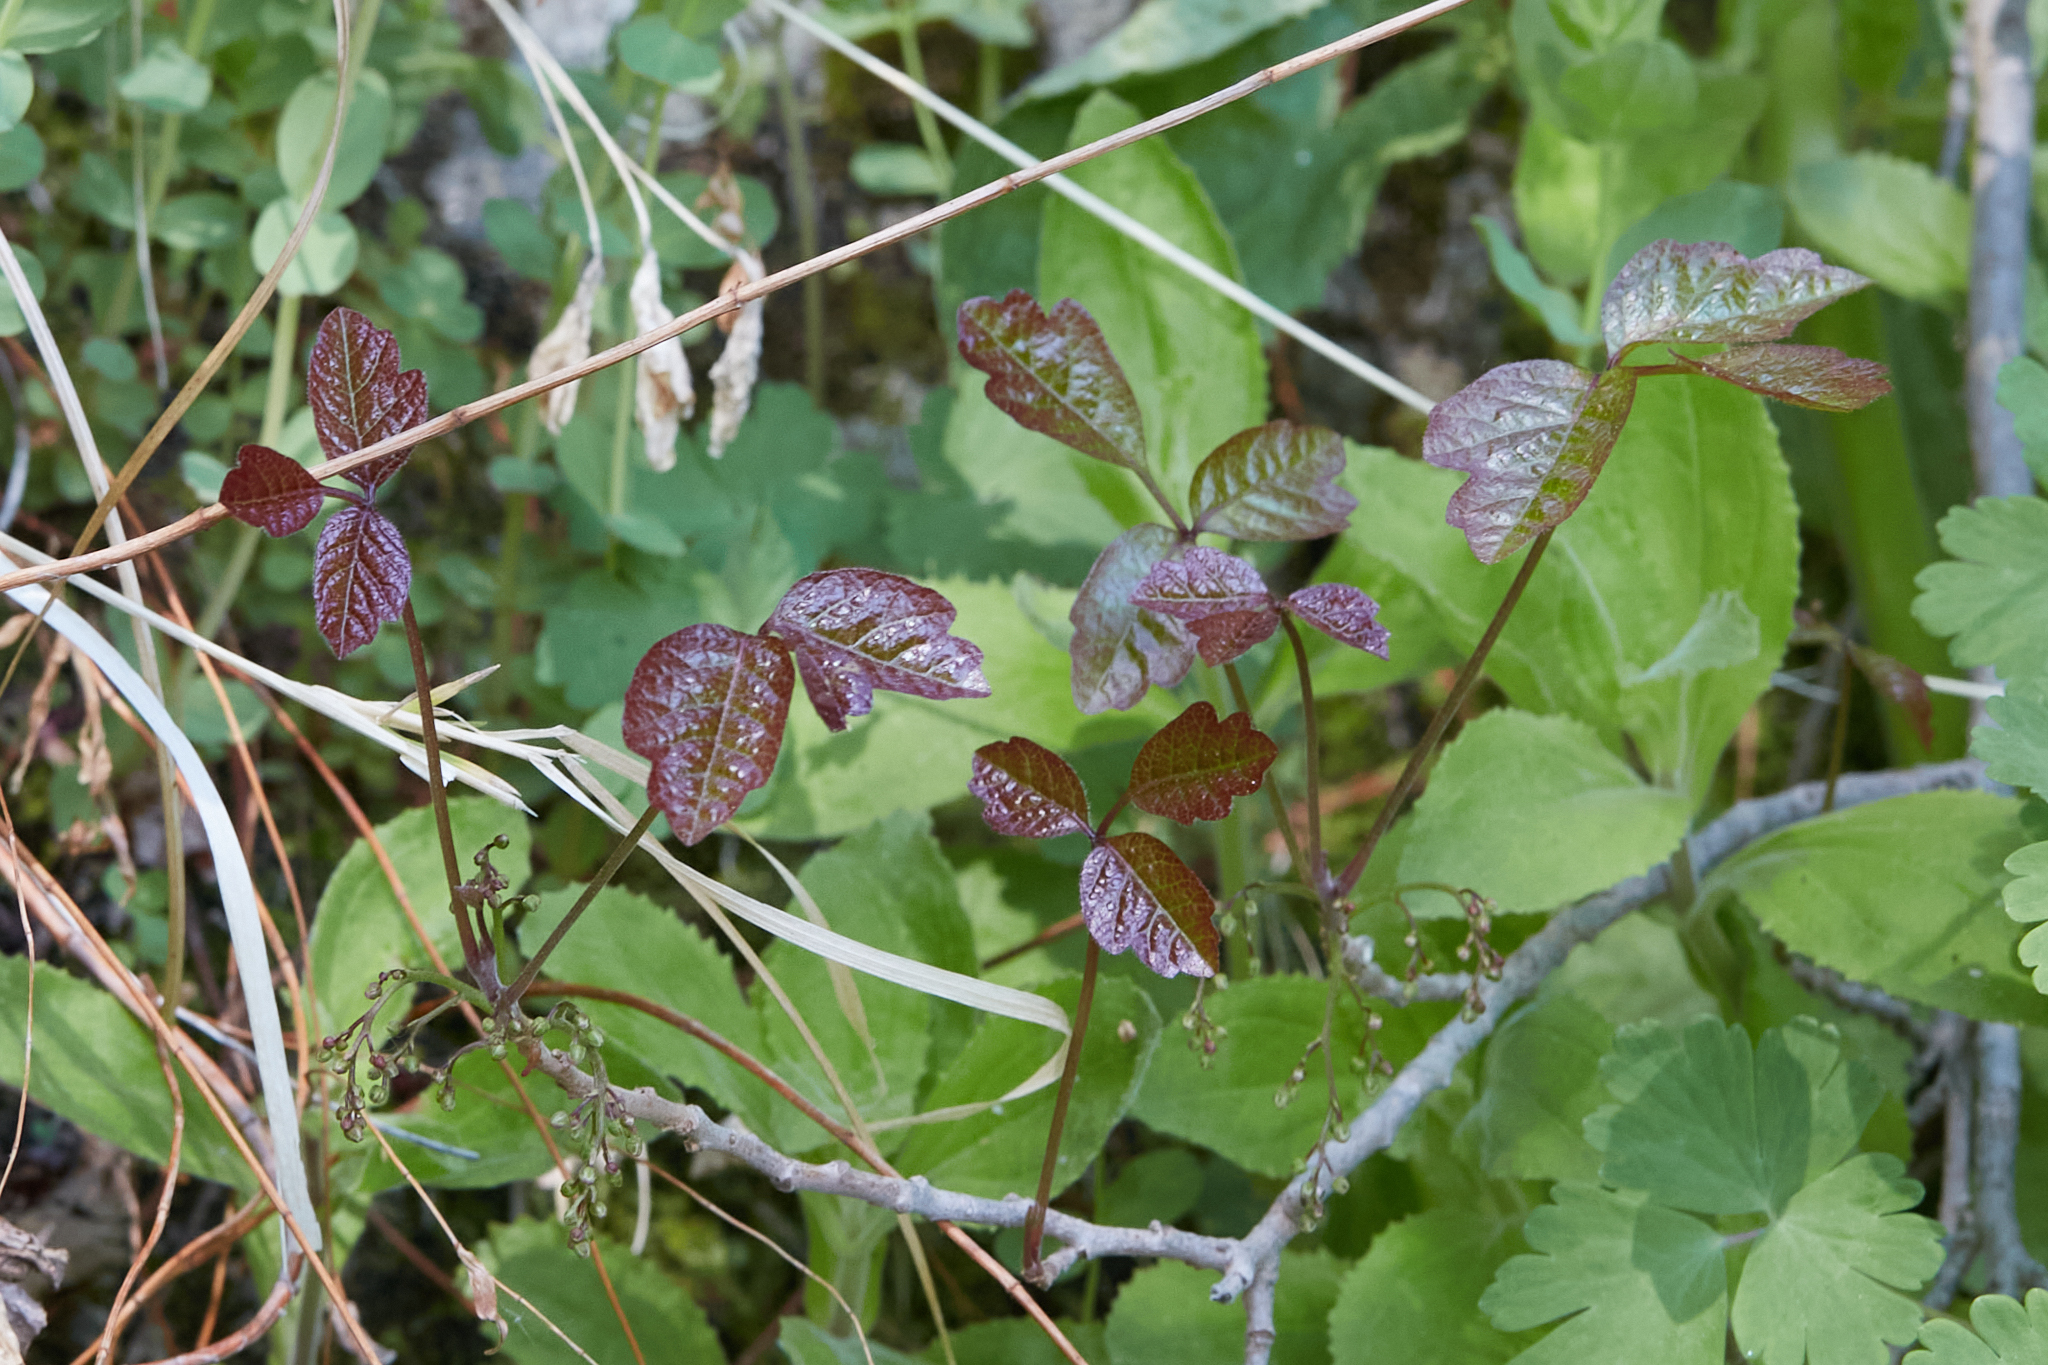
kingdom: Plantae
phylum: Tracheophyta
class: Magnoliopsida
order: Sapindales
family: Anacardiaceae
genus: Toxicodendron
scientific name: Toxicodendron diversilobum
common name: Pacific poison-oak
